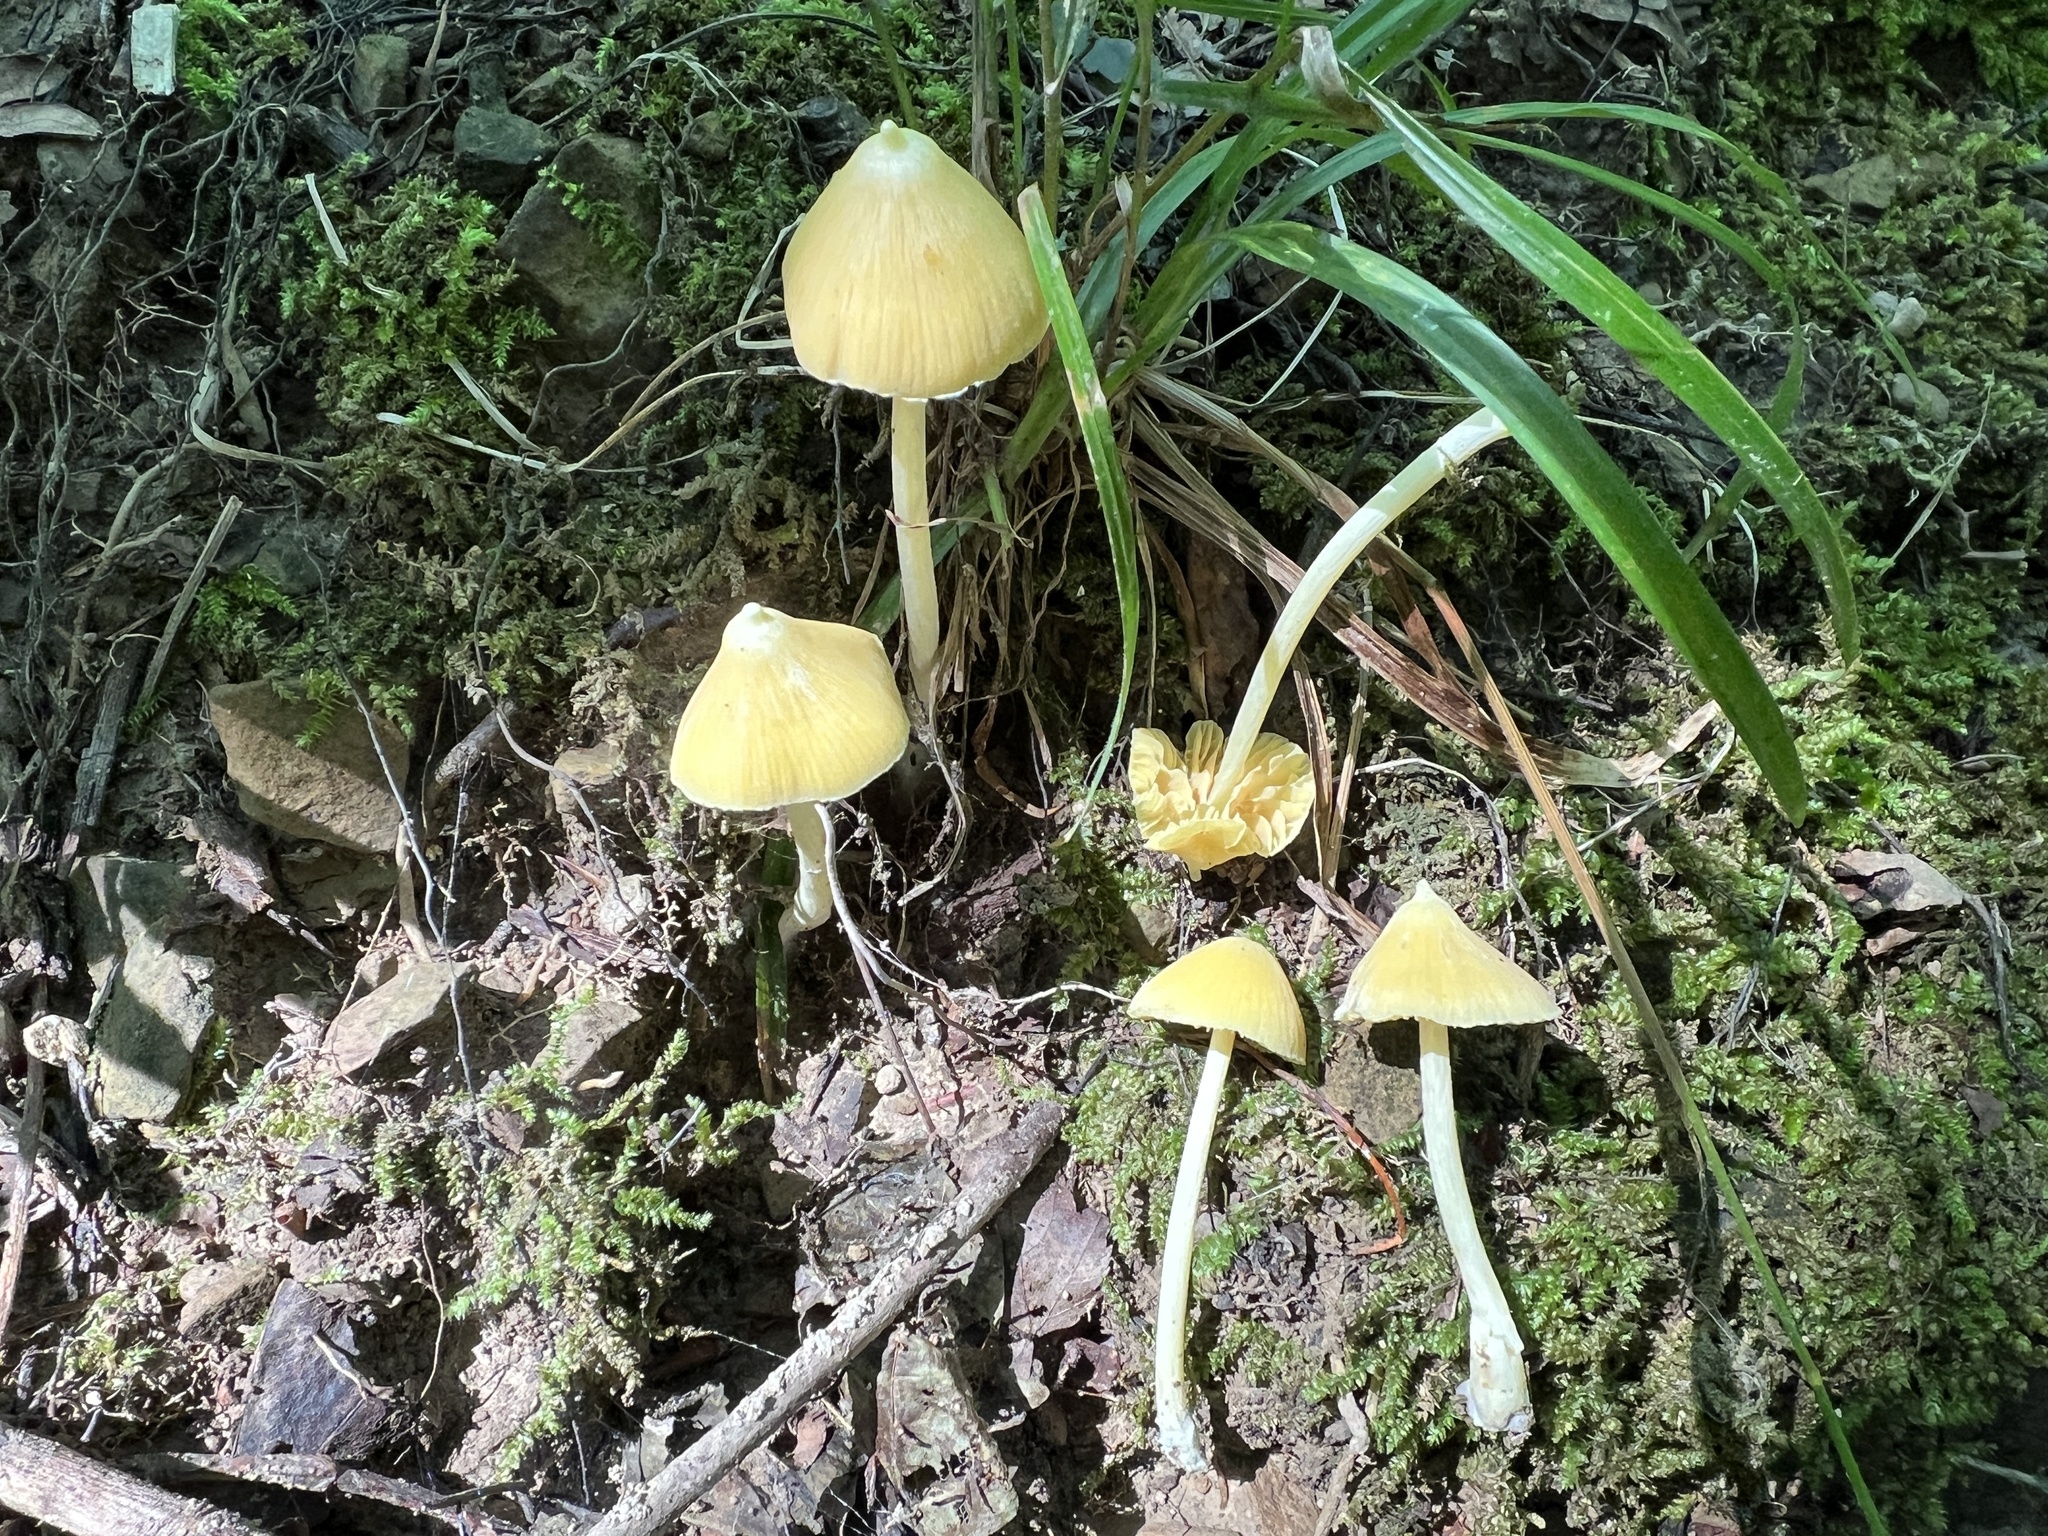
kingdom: Fungi
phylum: Basidiomycota
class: Agaricomycetes
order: Agaricales
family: Entolomataceae
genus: Entoloma
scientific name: Entoloma murrayi
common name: Yellow unicorn entoloma
